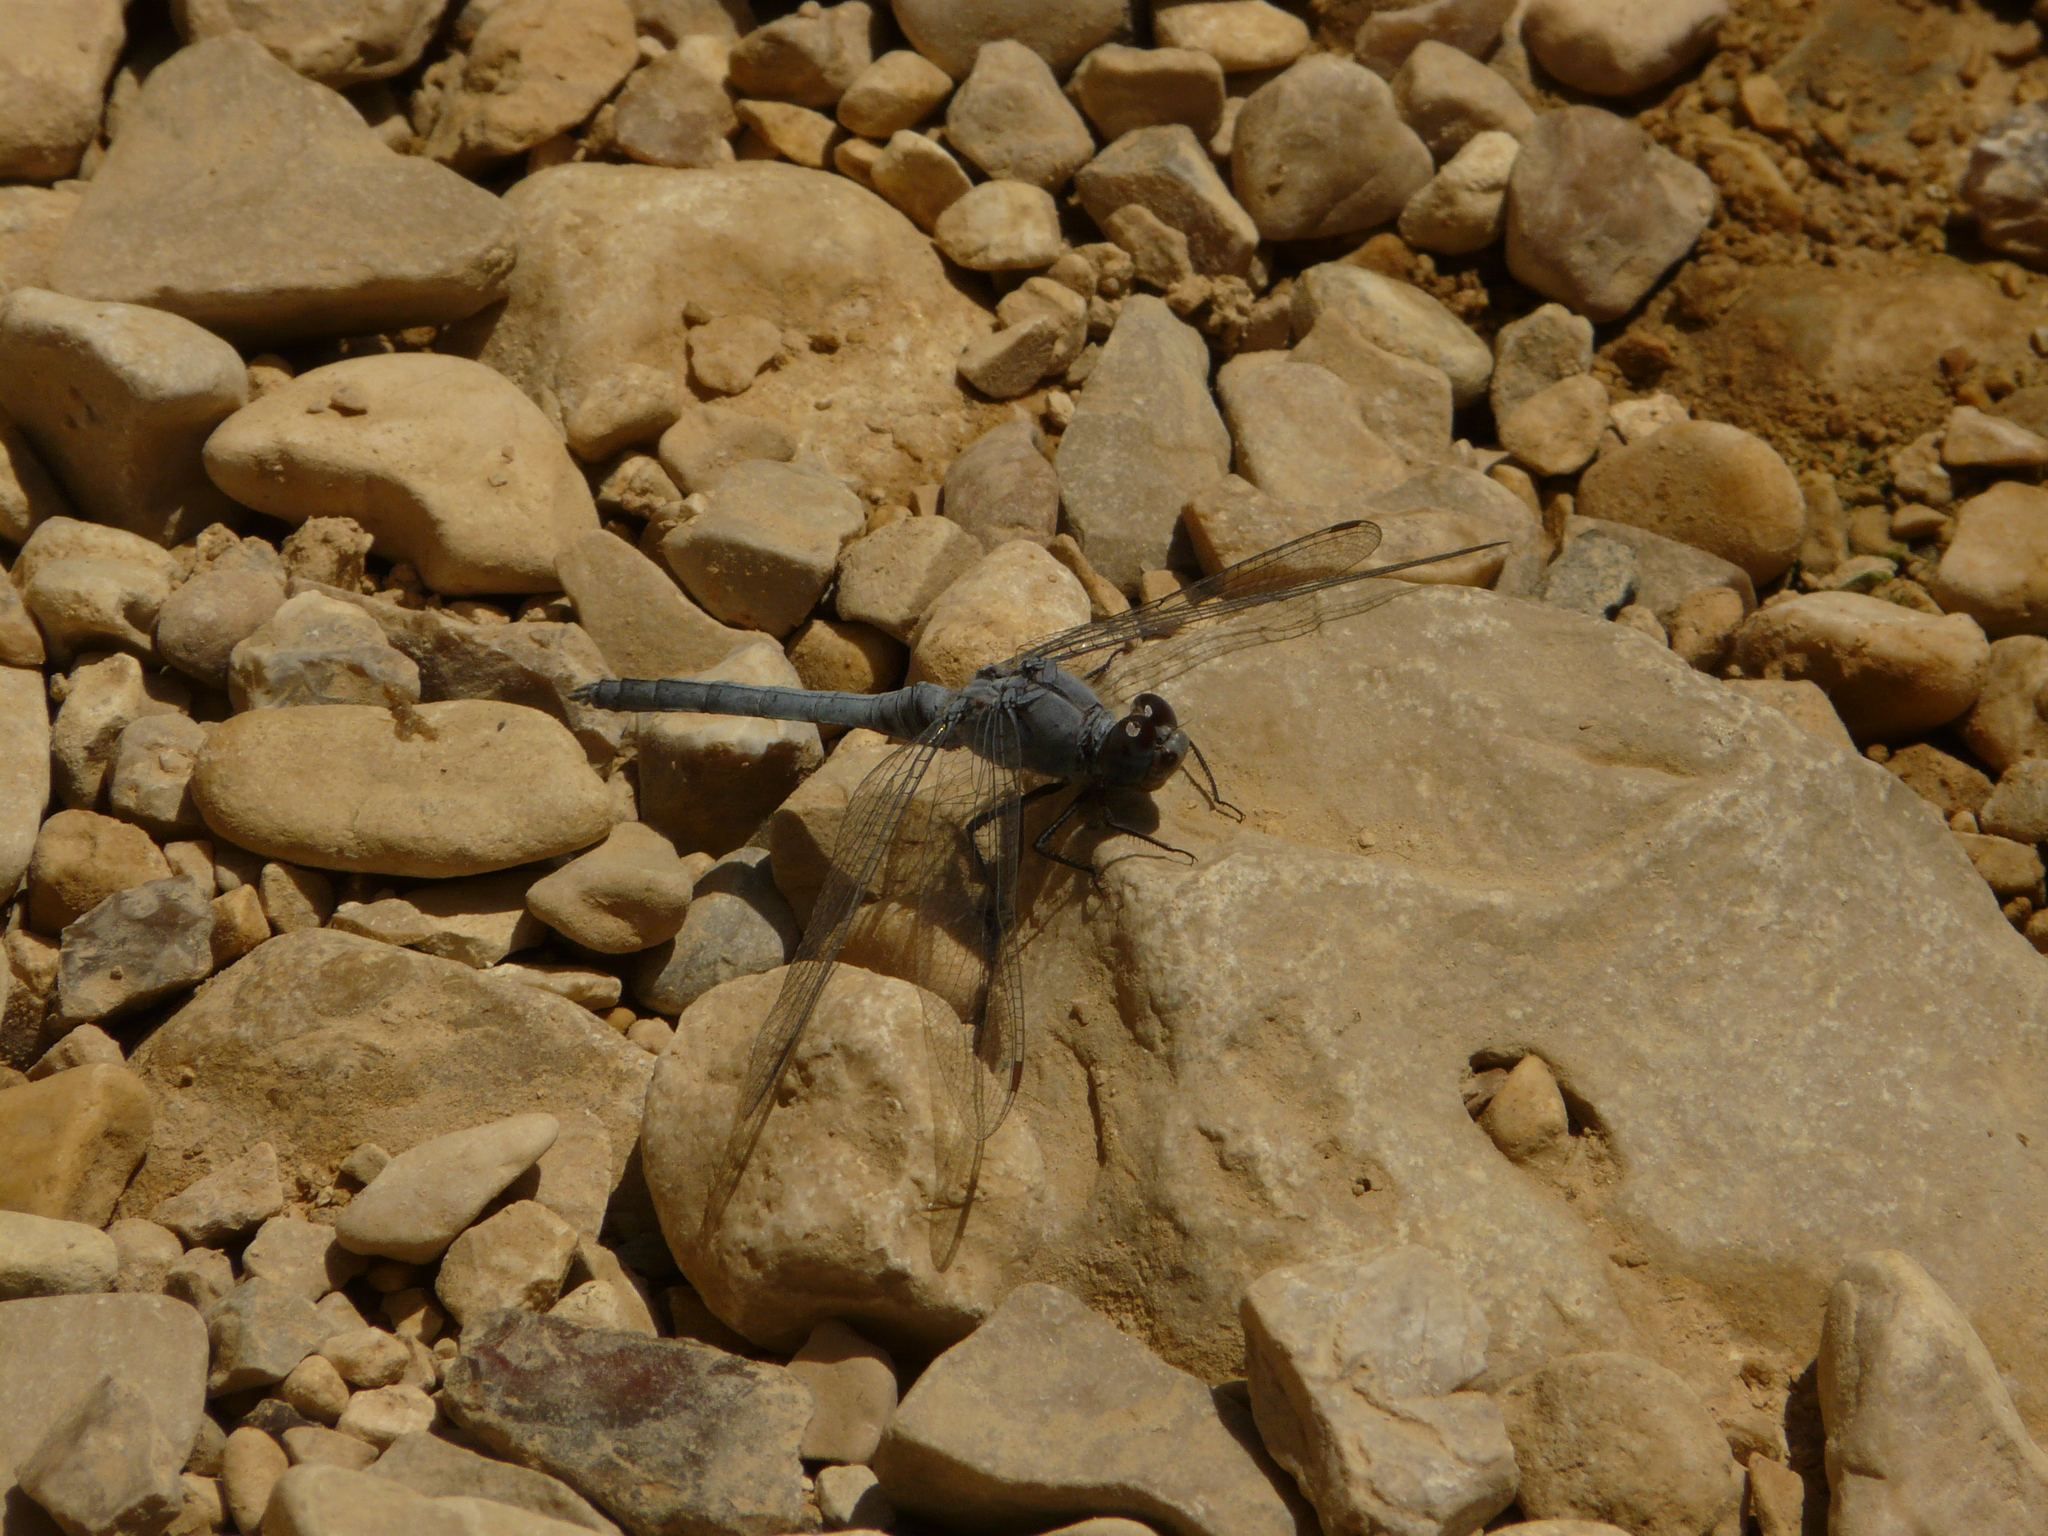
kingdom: Animalia
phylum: Arthropoda
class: Insecta
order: Odonata
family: Libellulidae
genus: Orthetrum
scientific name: Orthetrum ransonnetii
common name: Desert skimmer
